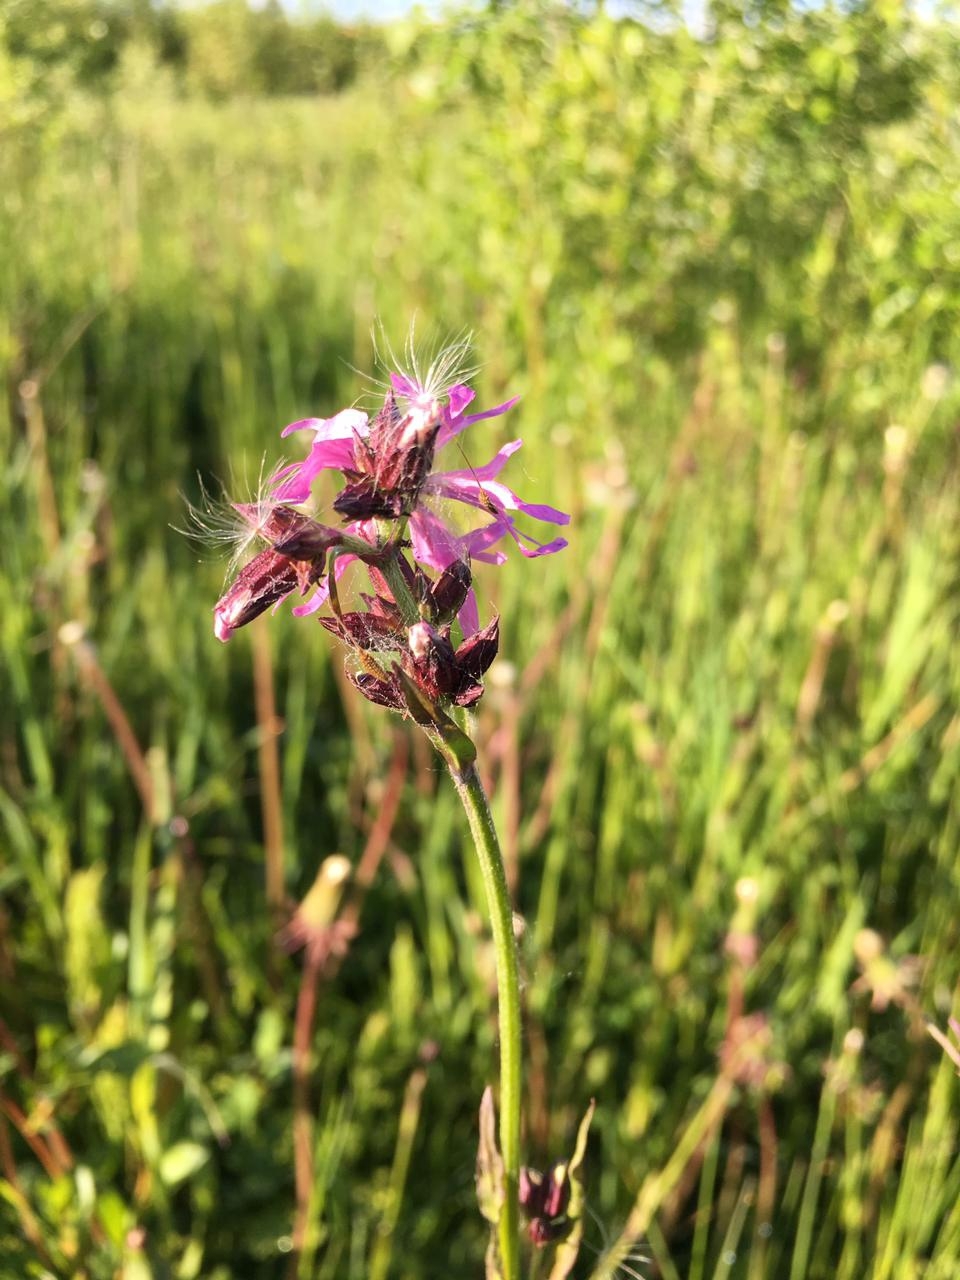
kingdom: Plantae
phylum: Tracheophyta
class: Magnoliopsida
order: Caryophyllales
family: Caryophyllaceae
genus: Silene
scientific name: Silene flos-cuculi
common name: Ragged-robin
